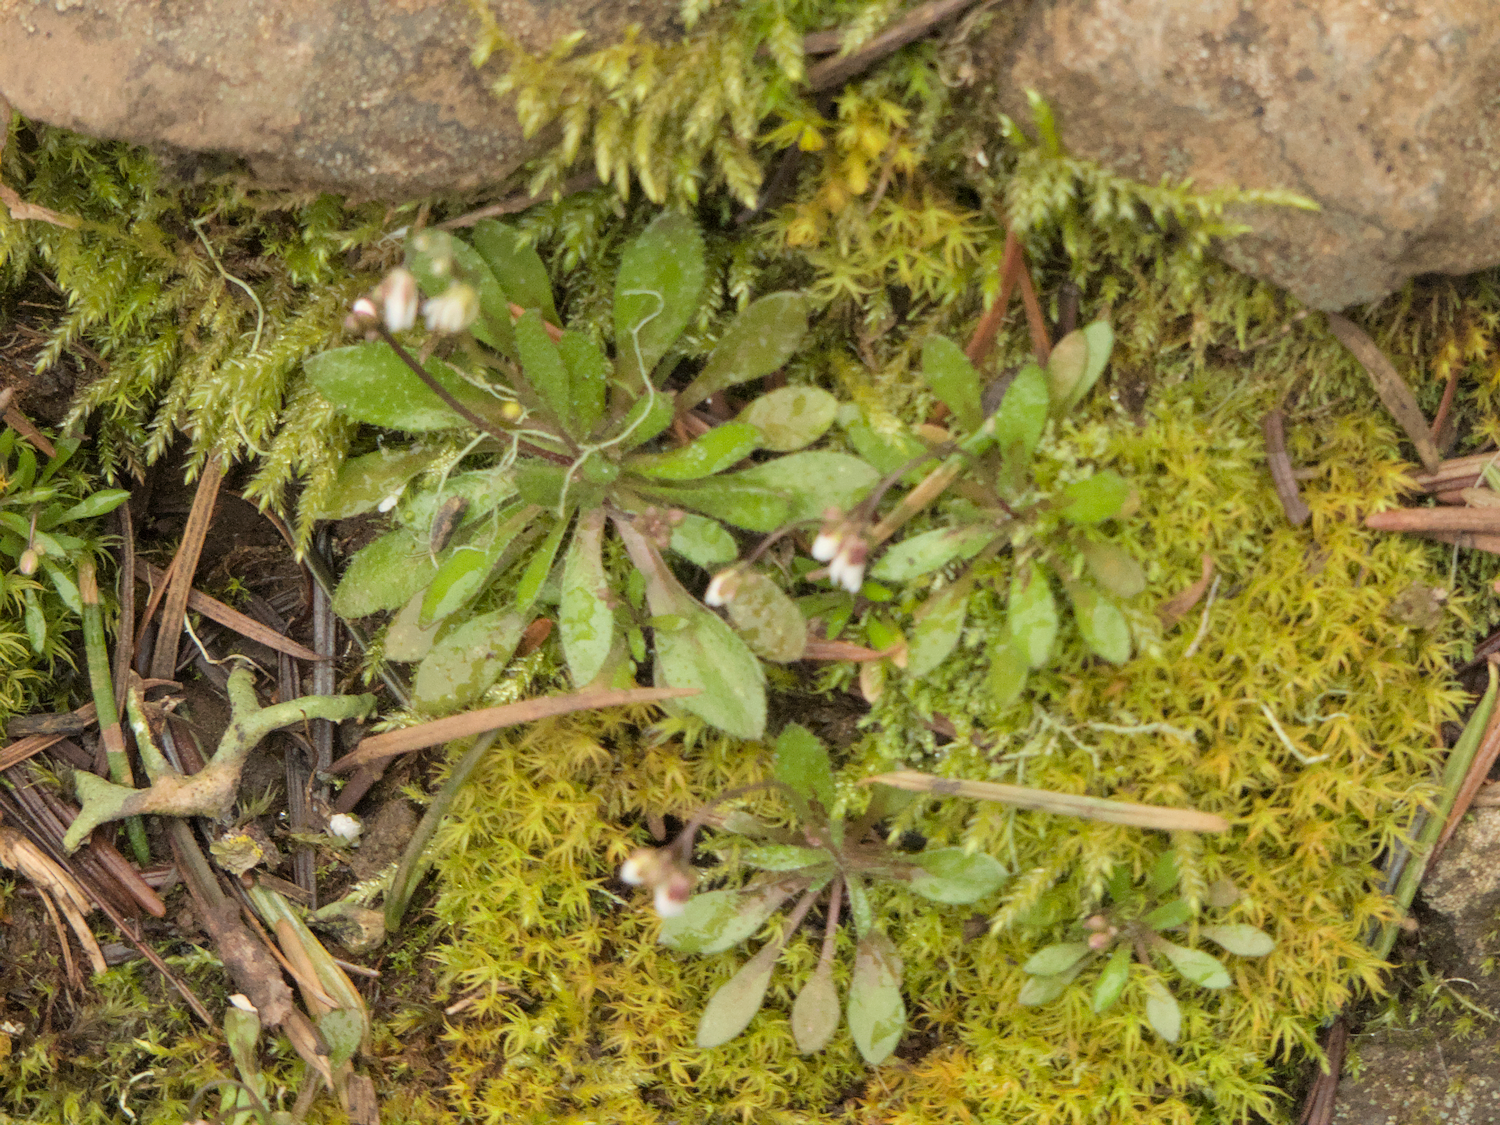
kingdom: Plantae
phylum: Tracheophyta
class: Magnoliopsida
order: Brassicales
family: Brassicaceae
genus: Draba
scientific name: Draba verna
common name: Spring draba
